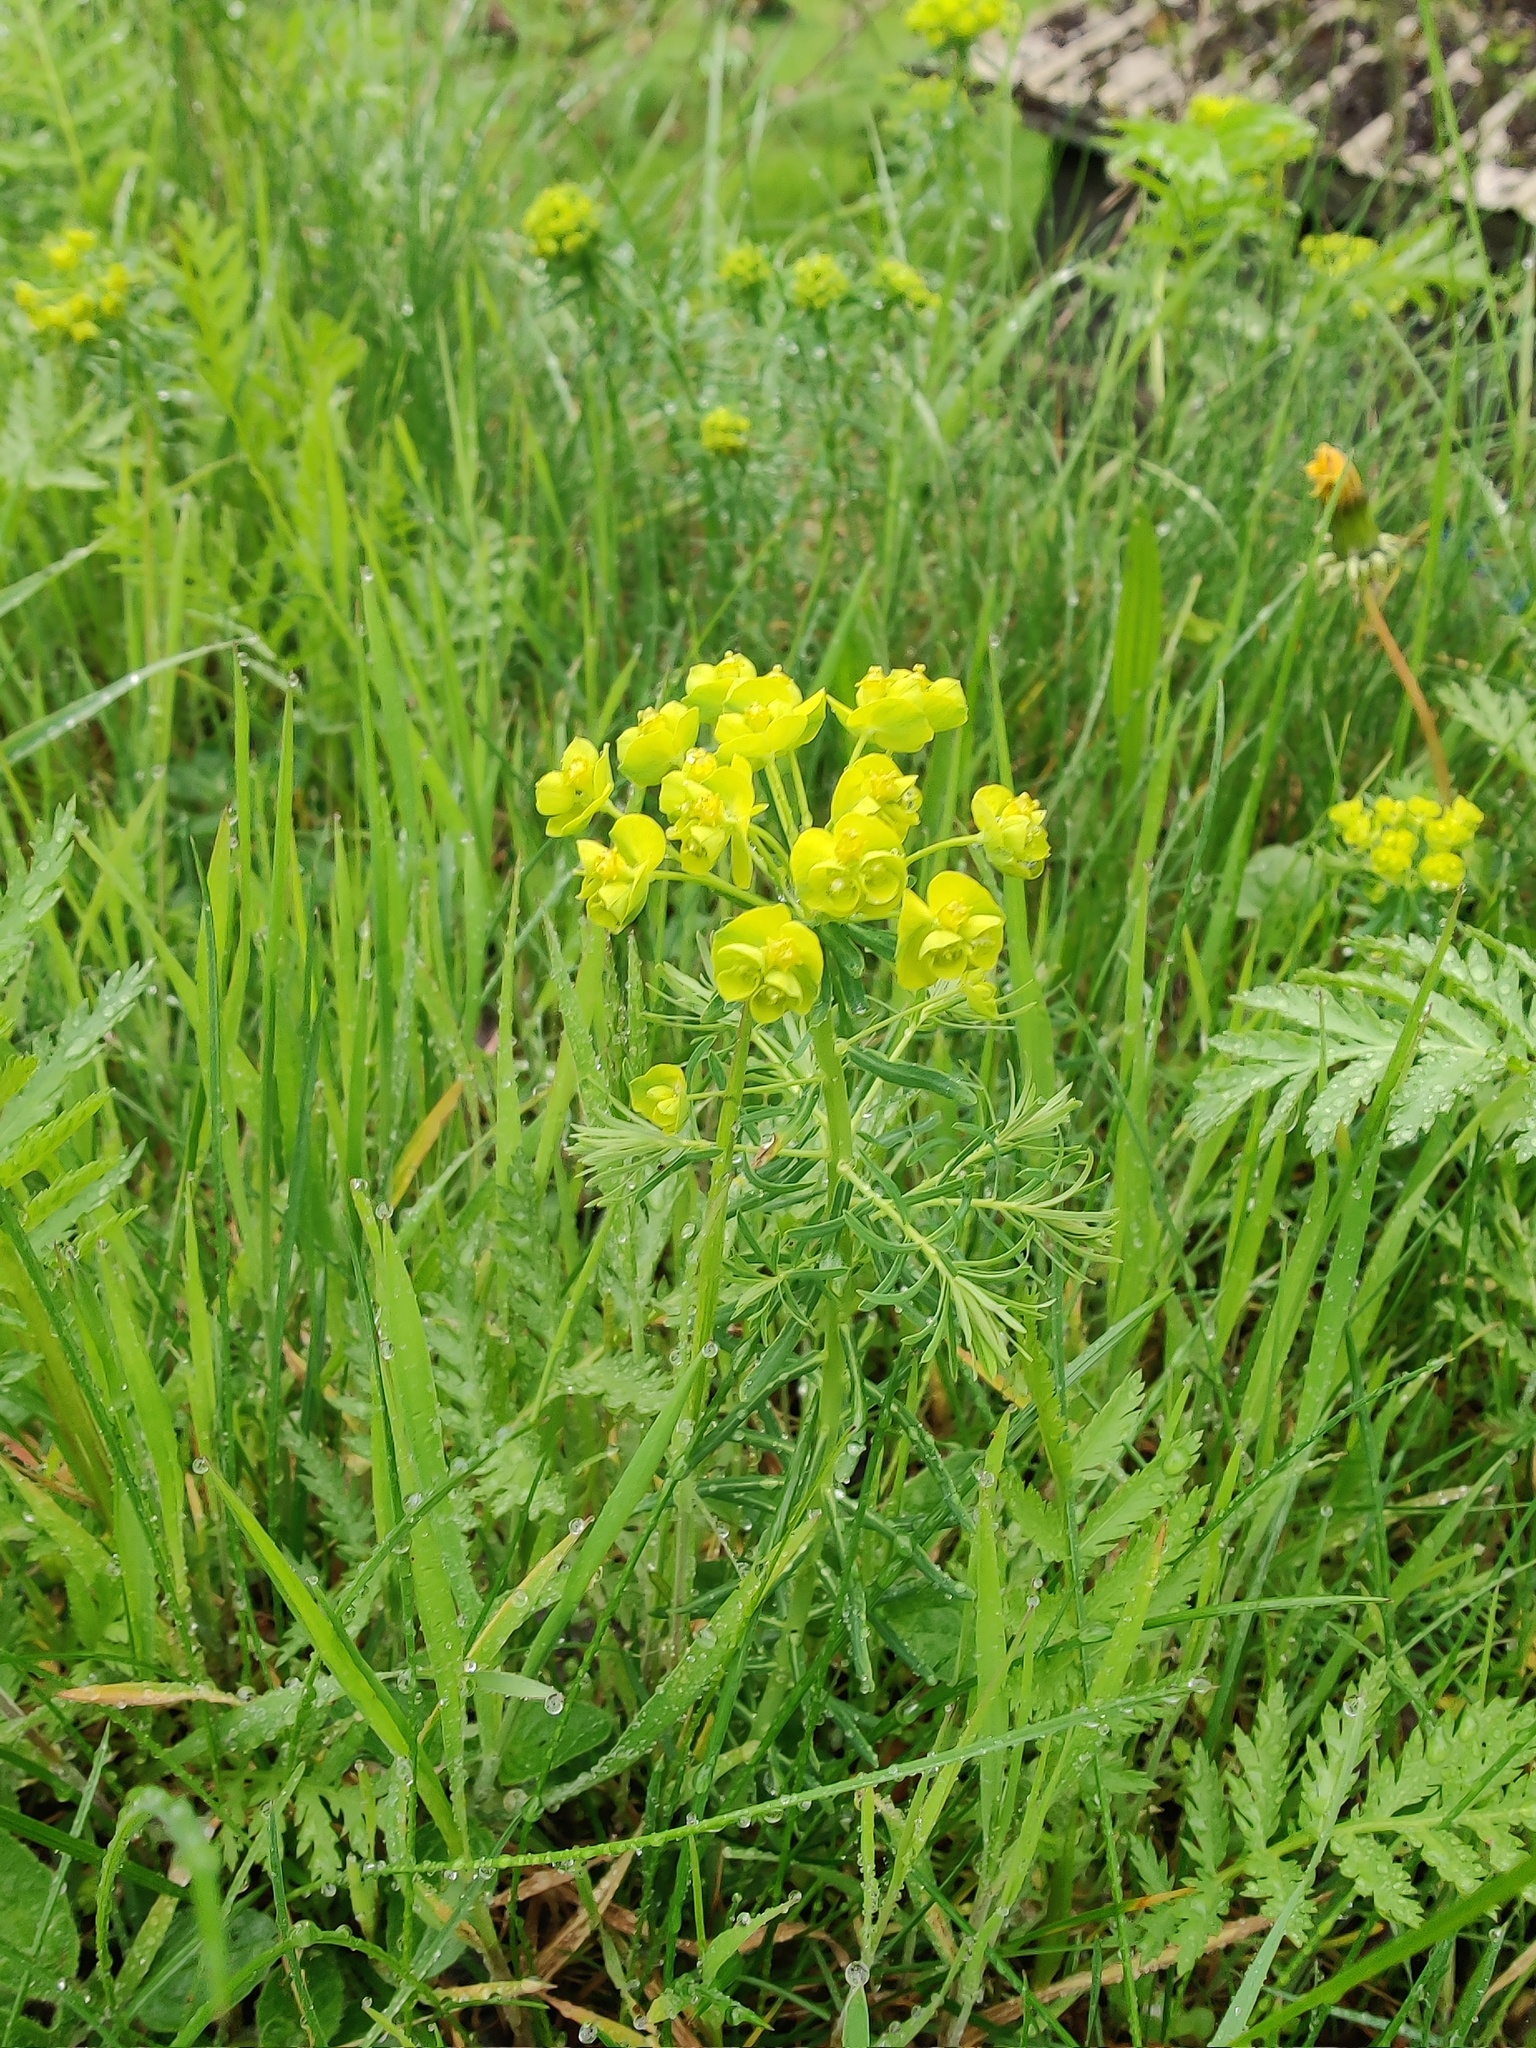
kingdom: Plantae
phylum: Tracheophyta
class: Magnoliopsida
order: Malpighiales
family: Euphorbiaceae
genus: Euphorbia
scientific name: Euphorbia cyparissias
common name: Cypress spurge
